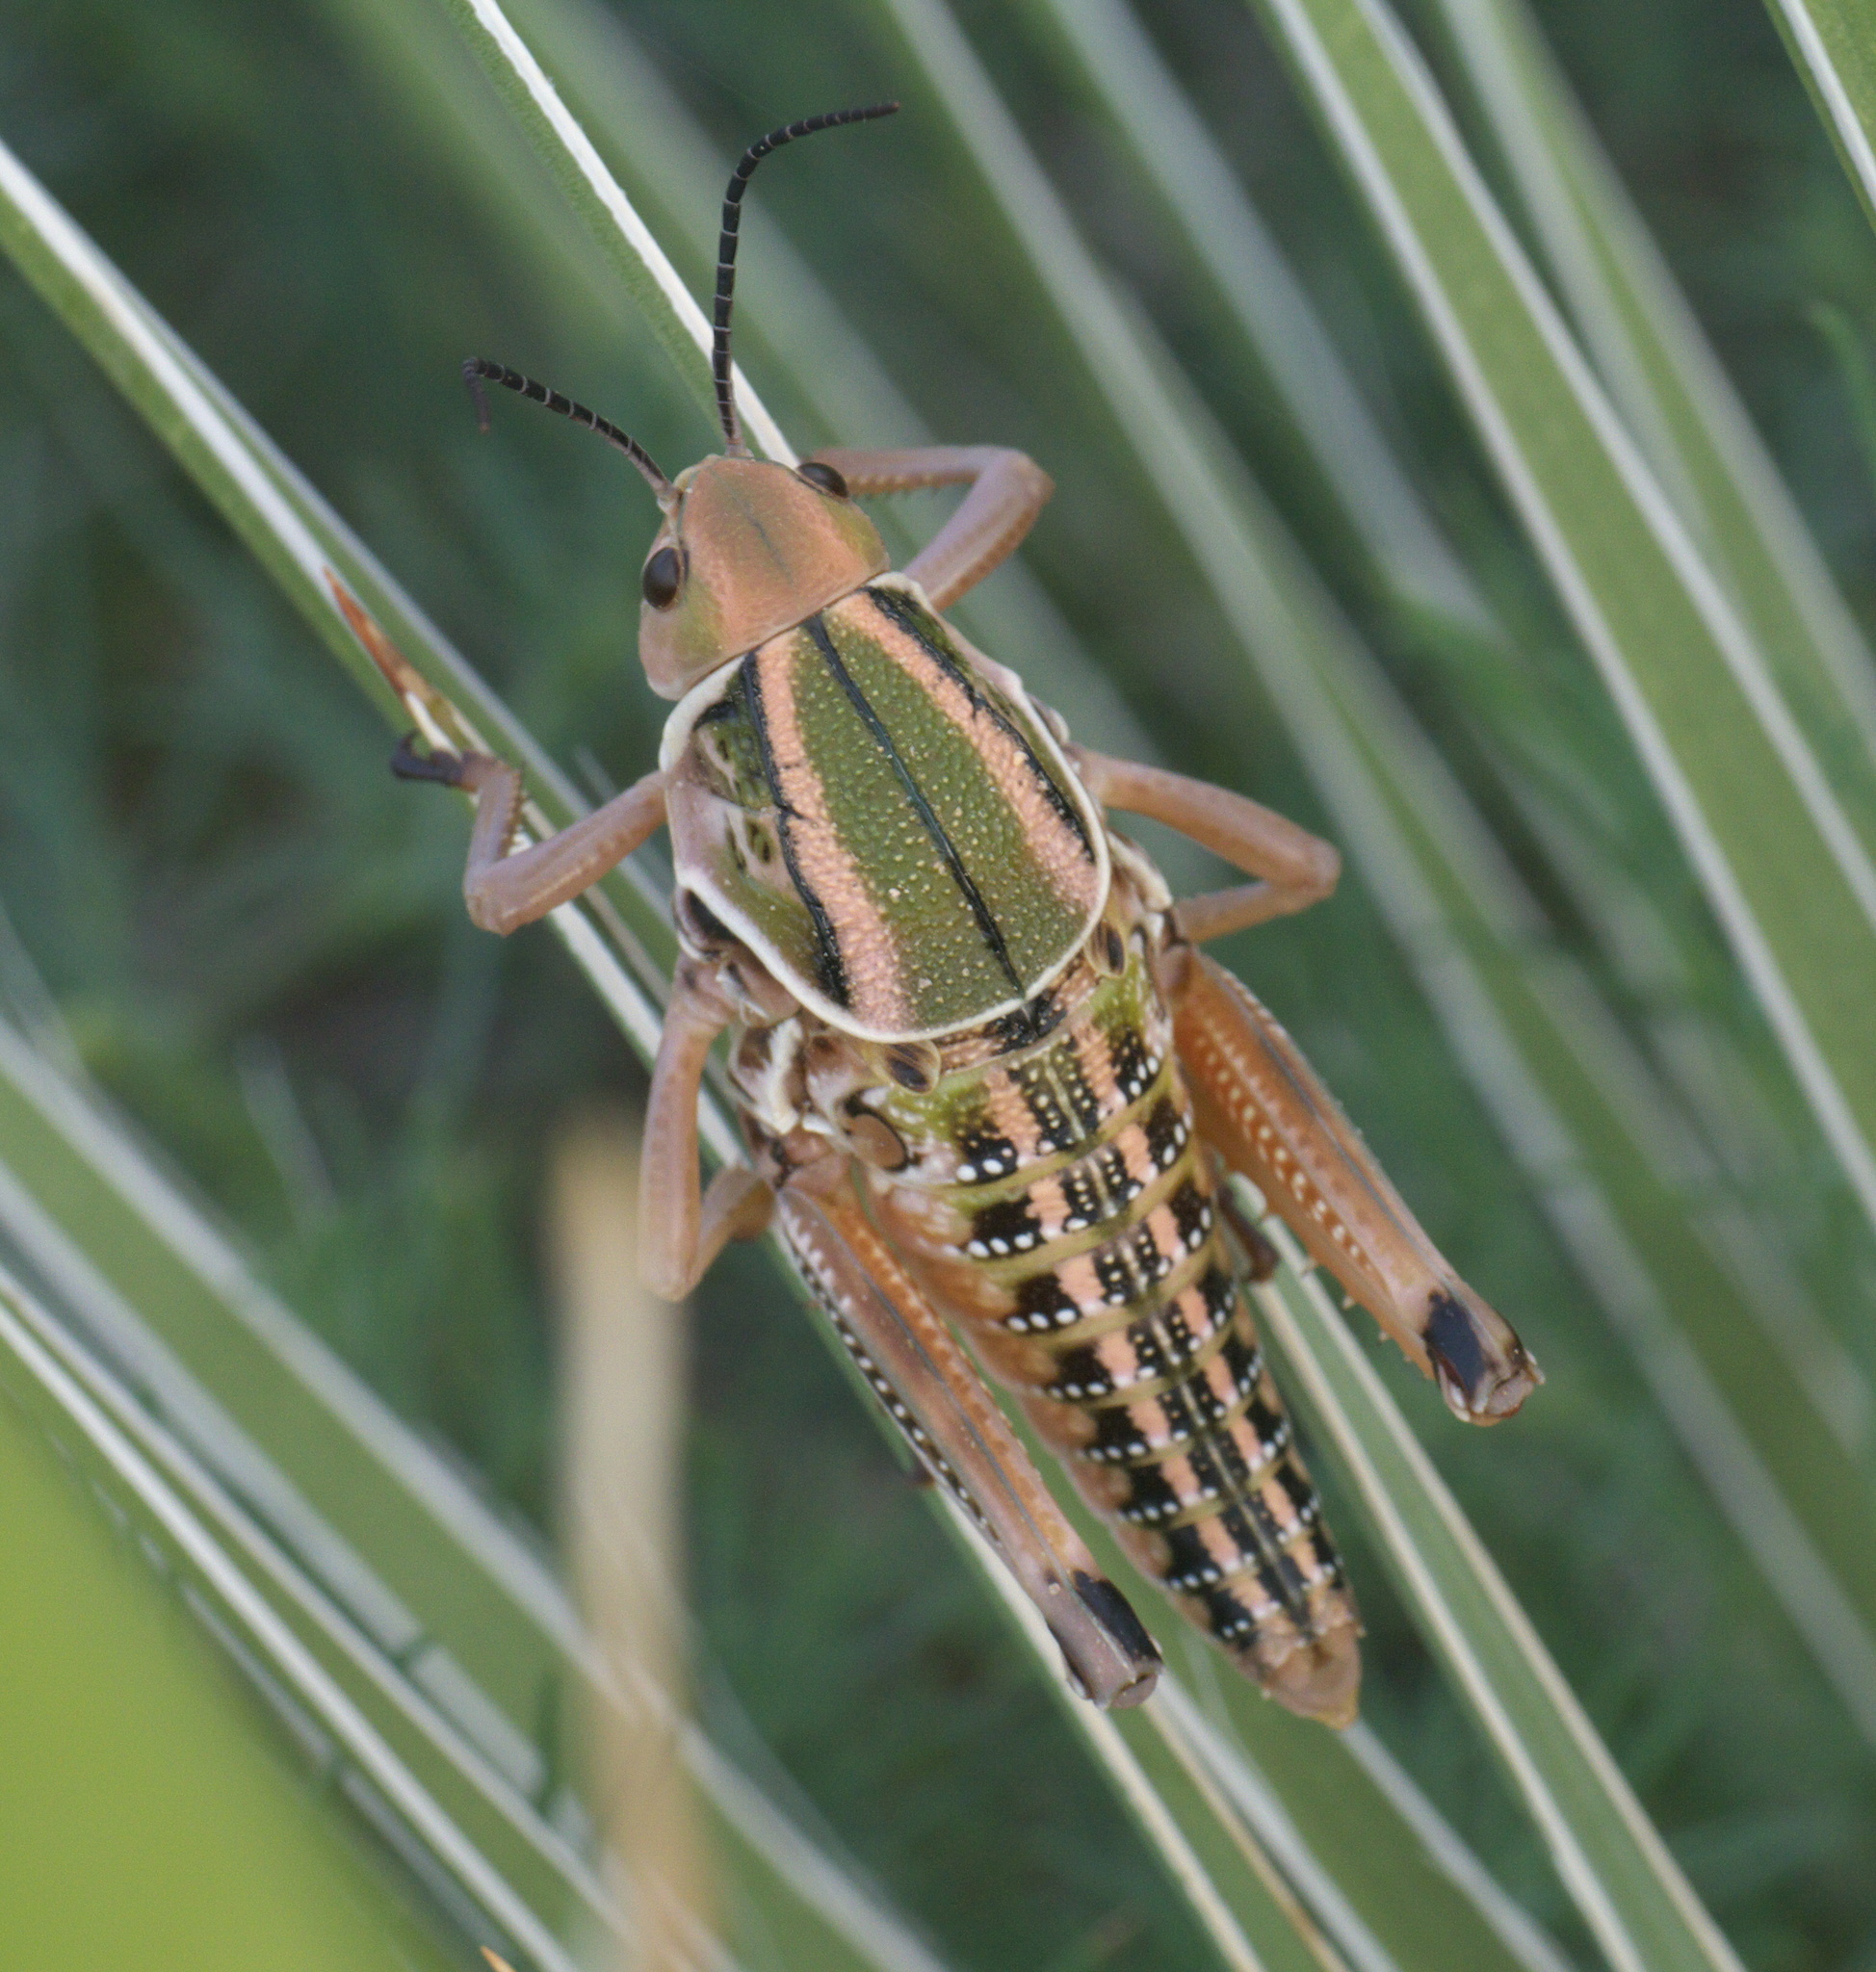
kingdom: Animalia
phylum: Arthropoda
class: Insecta
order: Orthoptera
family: Romaleidae
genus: Brachystola
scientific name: Brachystola magna
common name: Plains lubber grasshopper
